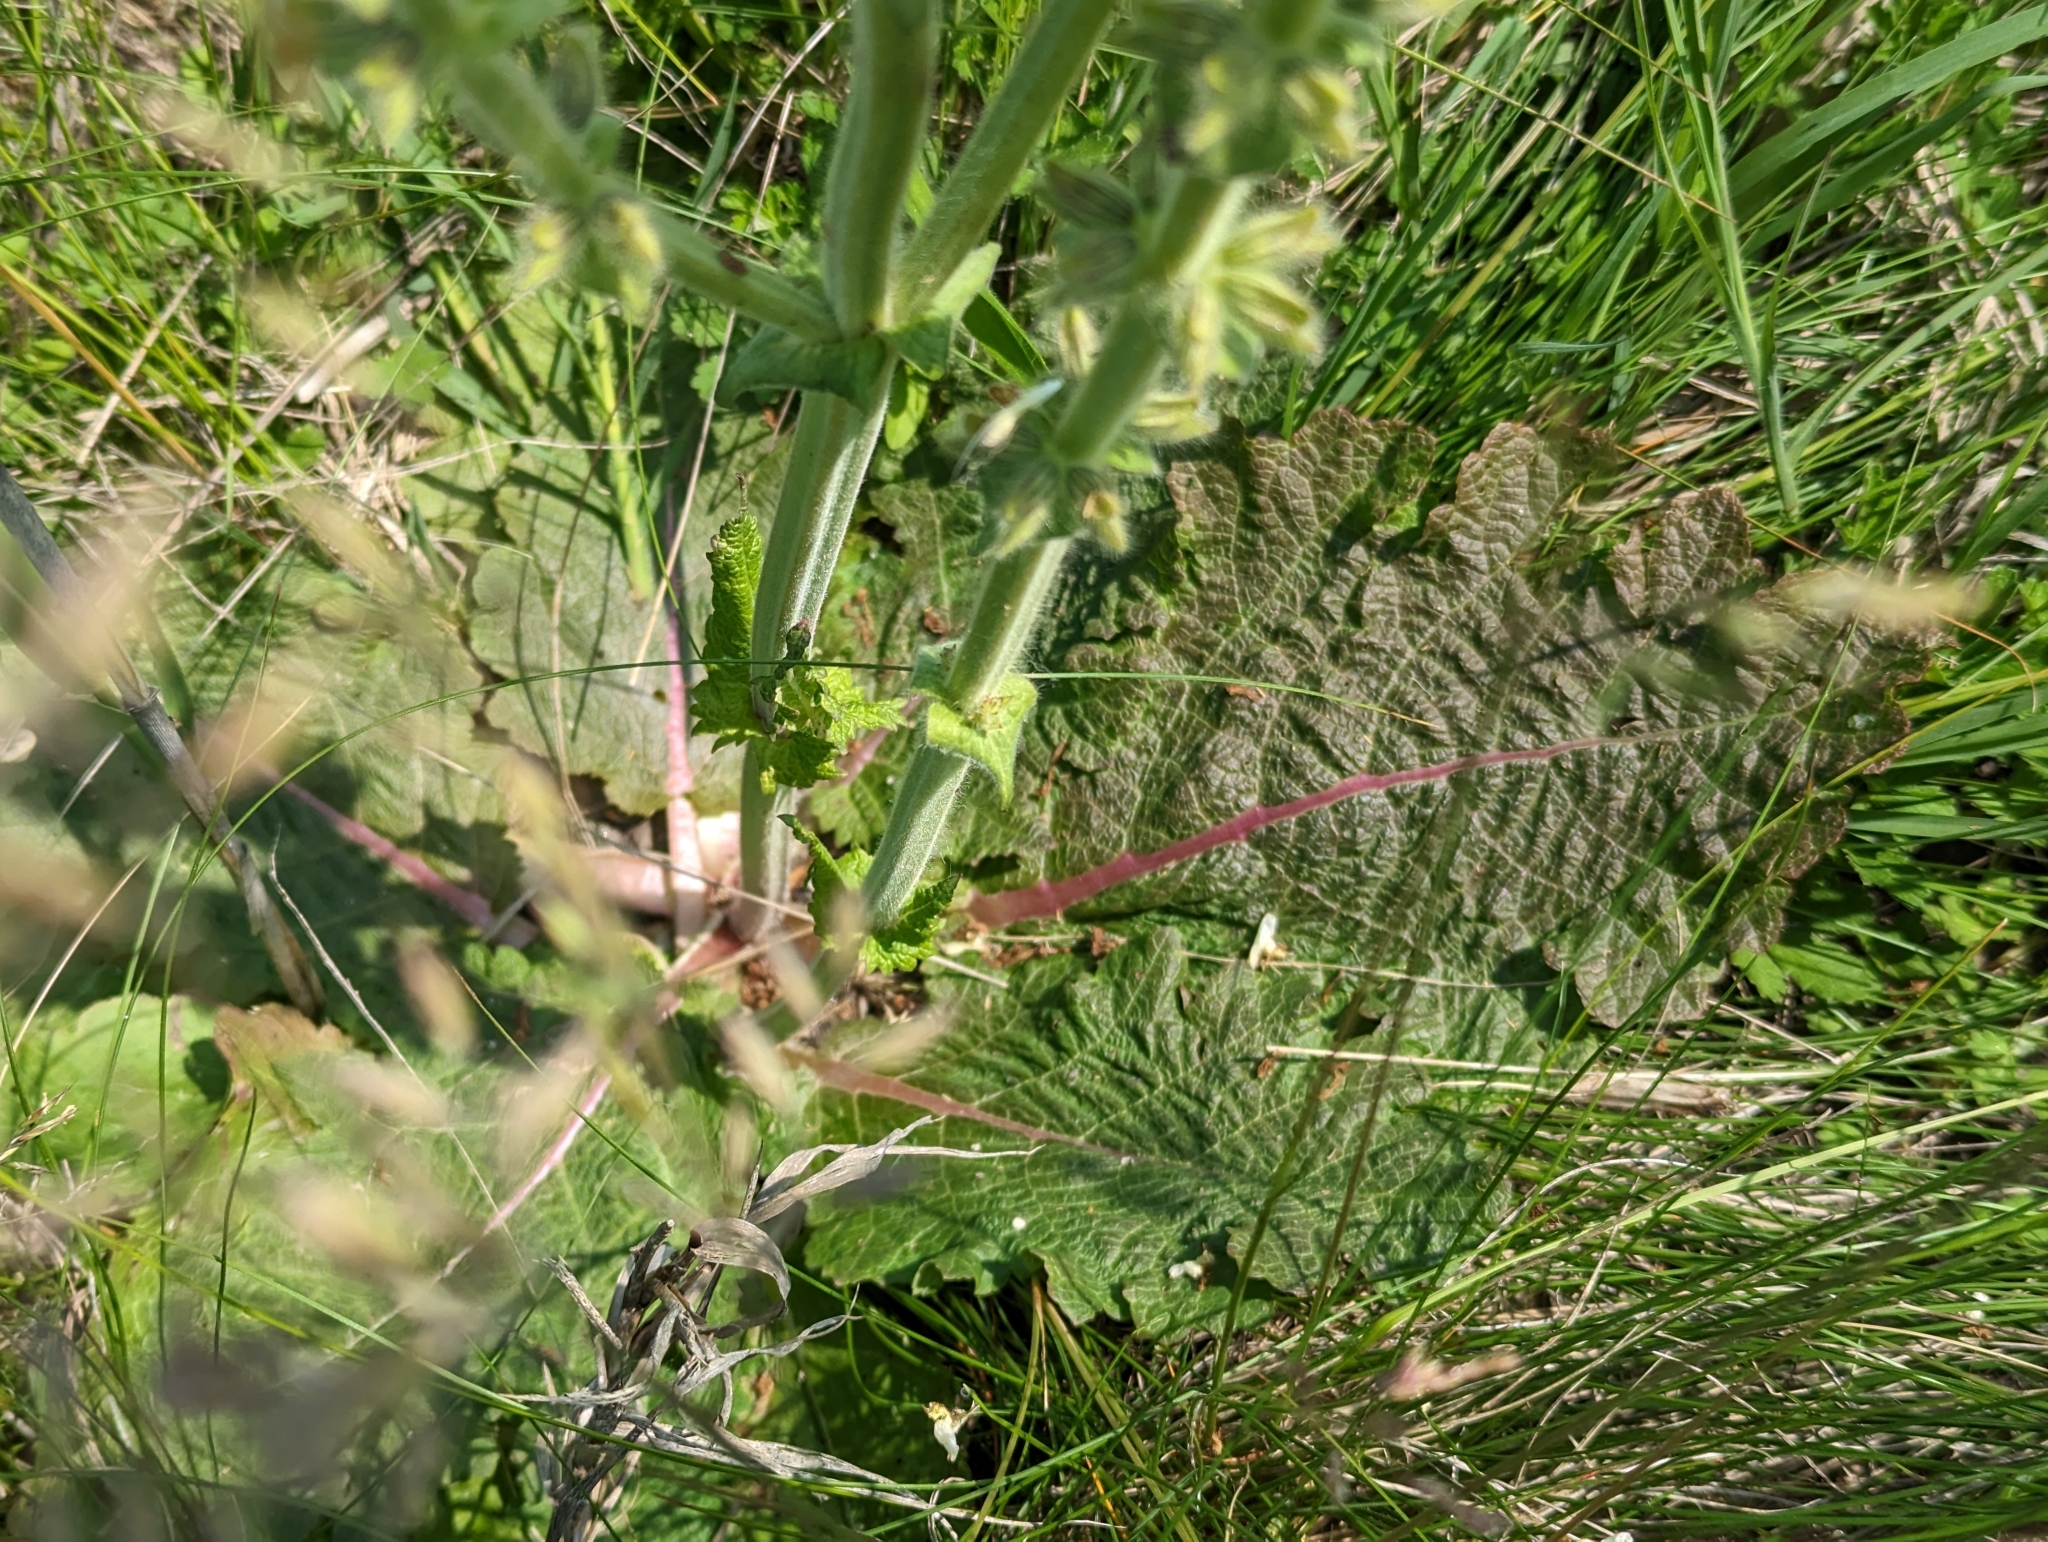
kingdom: Plantae
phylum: Tracheophyta
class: Magnoliopsida
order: Lamiales
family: Lamiaceae
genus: Salvia
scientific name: Salvia austriaca
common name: Austrian sage
